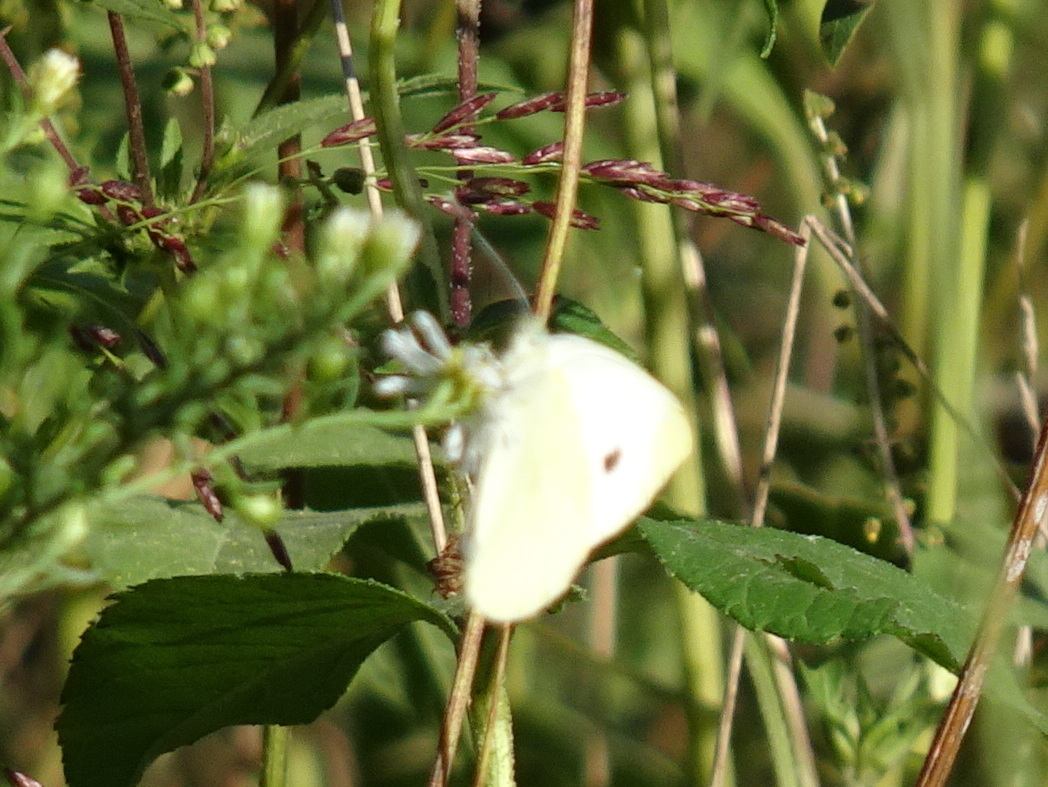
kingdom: Animalia
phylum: Arthropoda
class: Insecta
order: Lepidoptera
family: Pieridae
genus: Pieris
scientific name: Pieris rapae
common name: Small white
